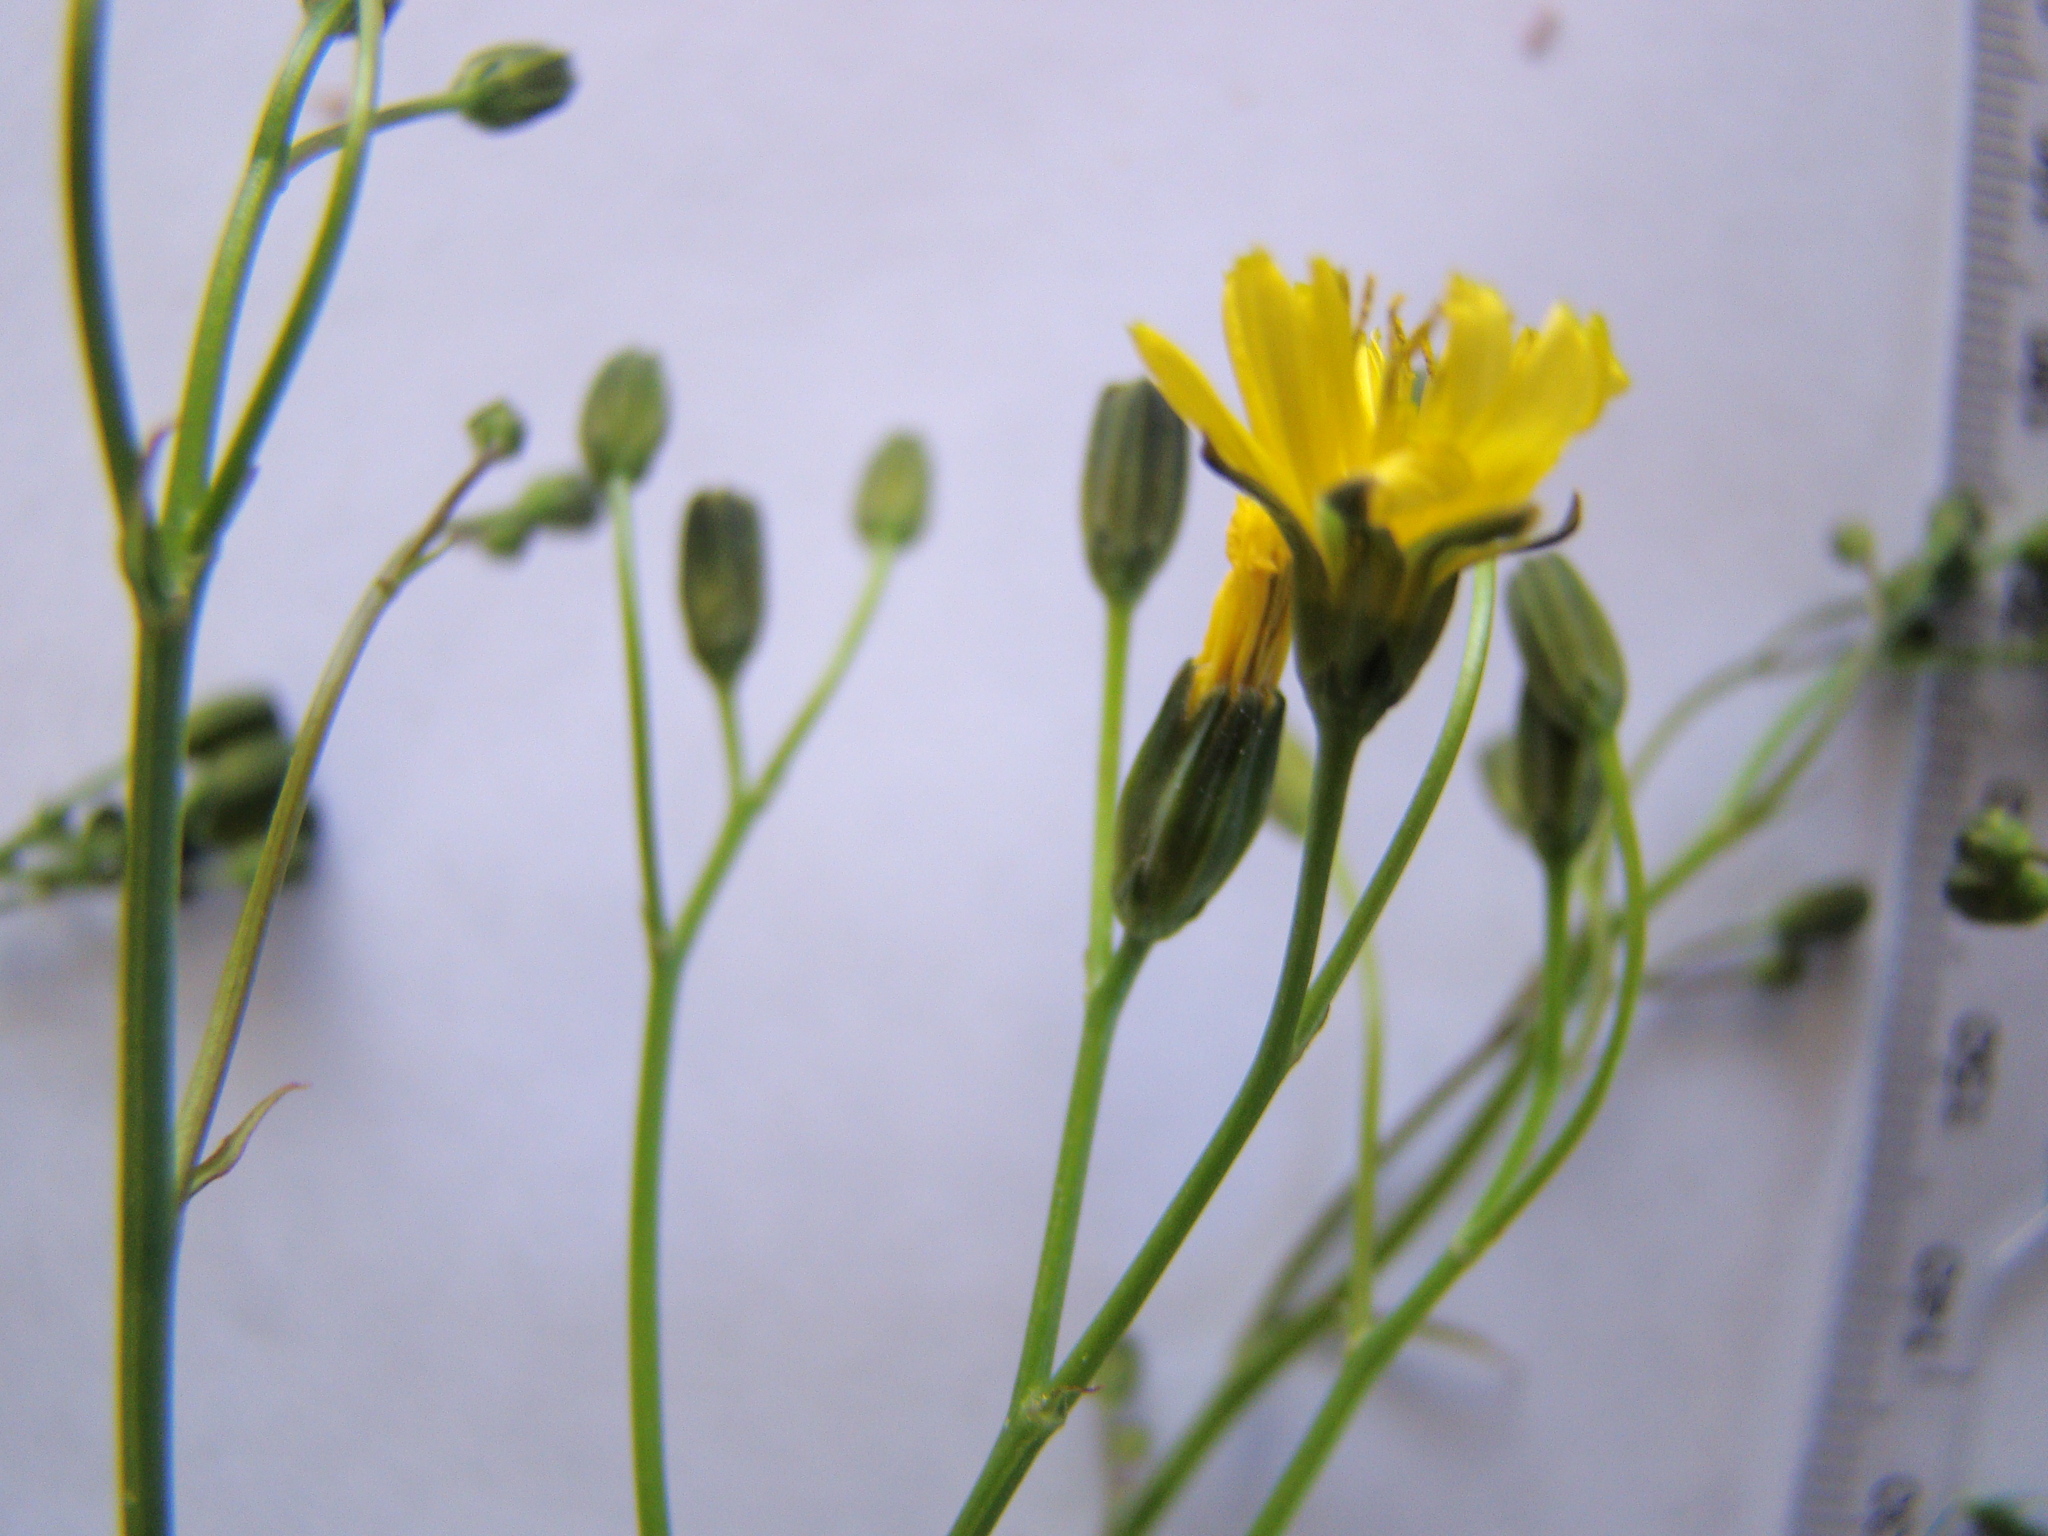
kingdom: Plantae
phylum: Tracheophyta
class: Magnoliopsida
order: Asterales
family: Asteraceae
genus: Lapsana
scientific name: Lapsana communis
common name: Nipplewort
